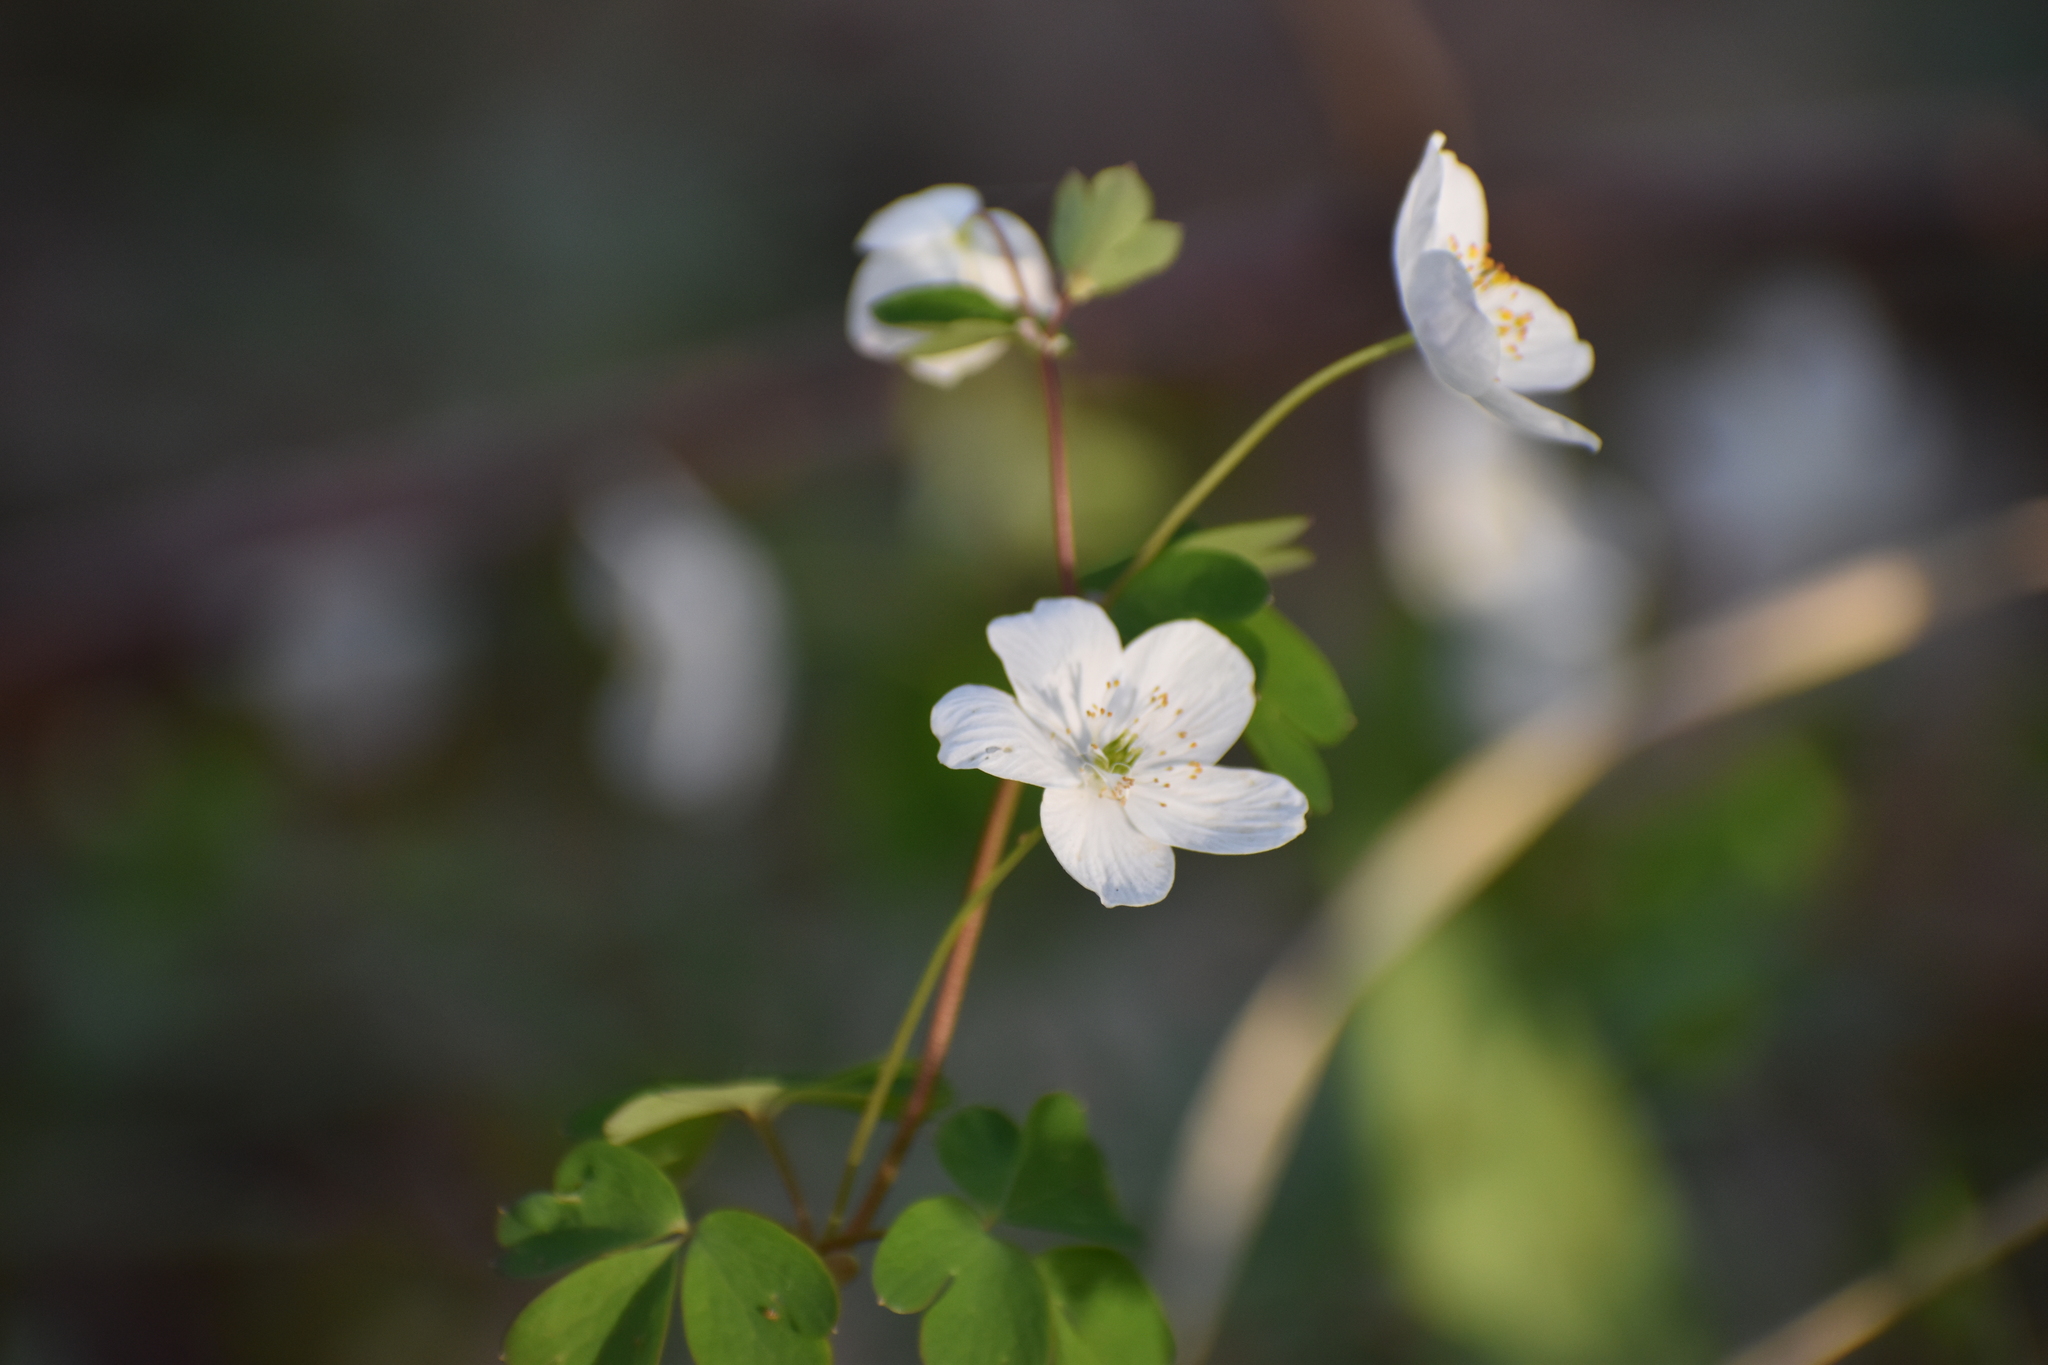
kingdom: Plantae
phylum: Tracheophyta
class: Magnoliopsida
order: Ranunculales
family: Ranunculaceae
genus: Enemion
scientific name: Enemion biternatum
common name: Eastern false rue-anemone
